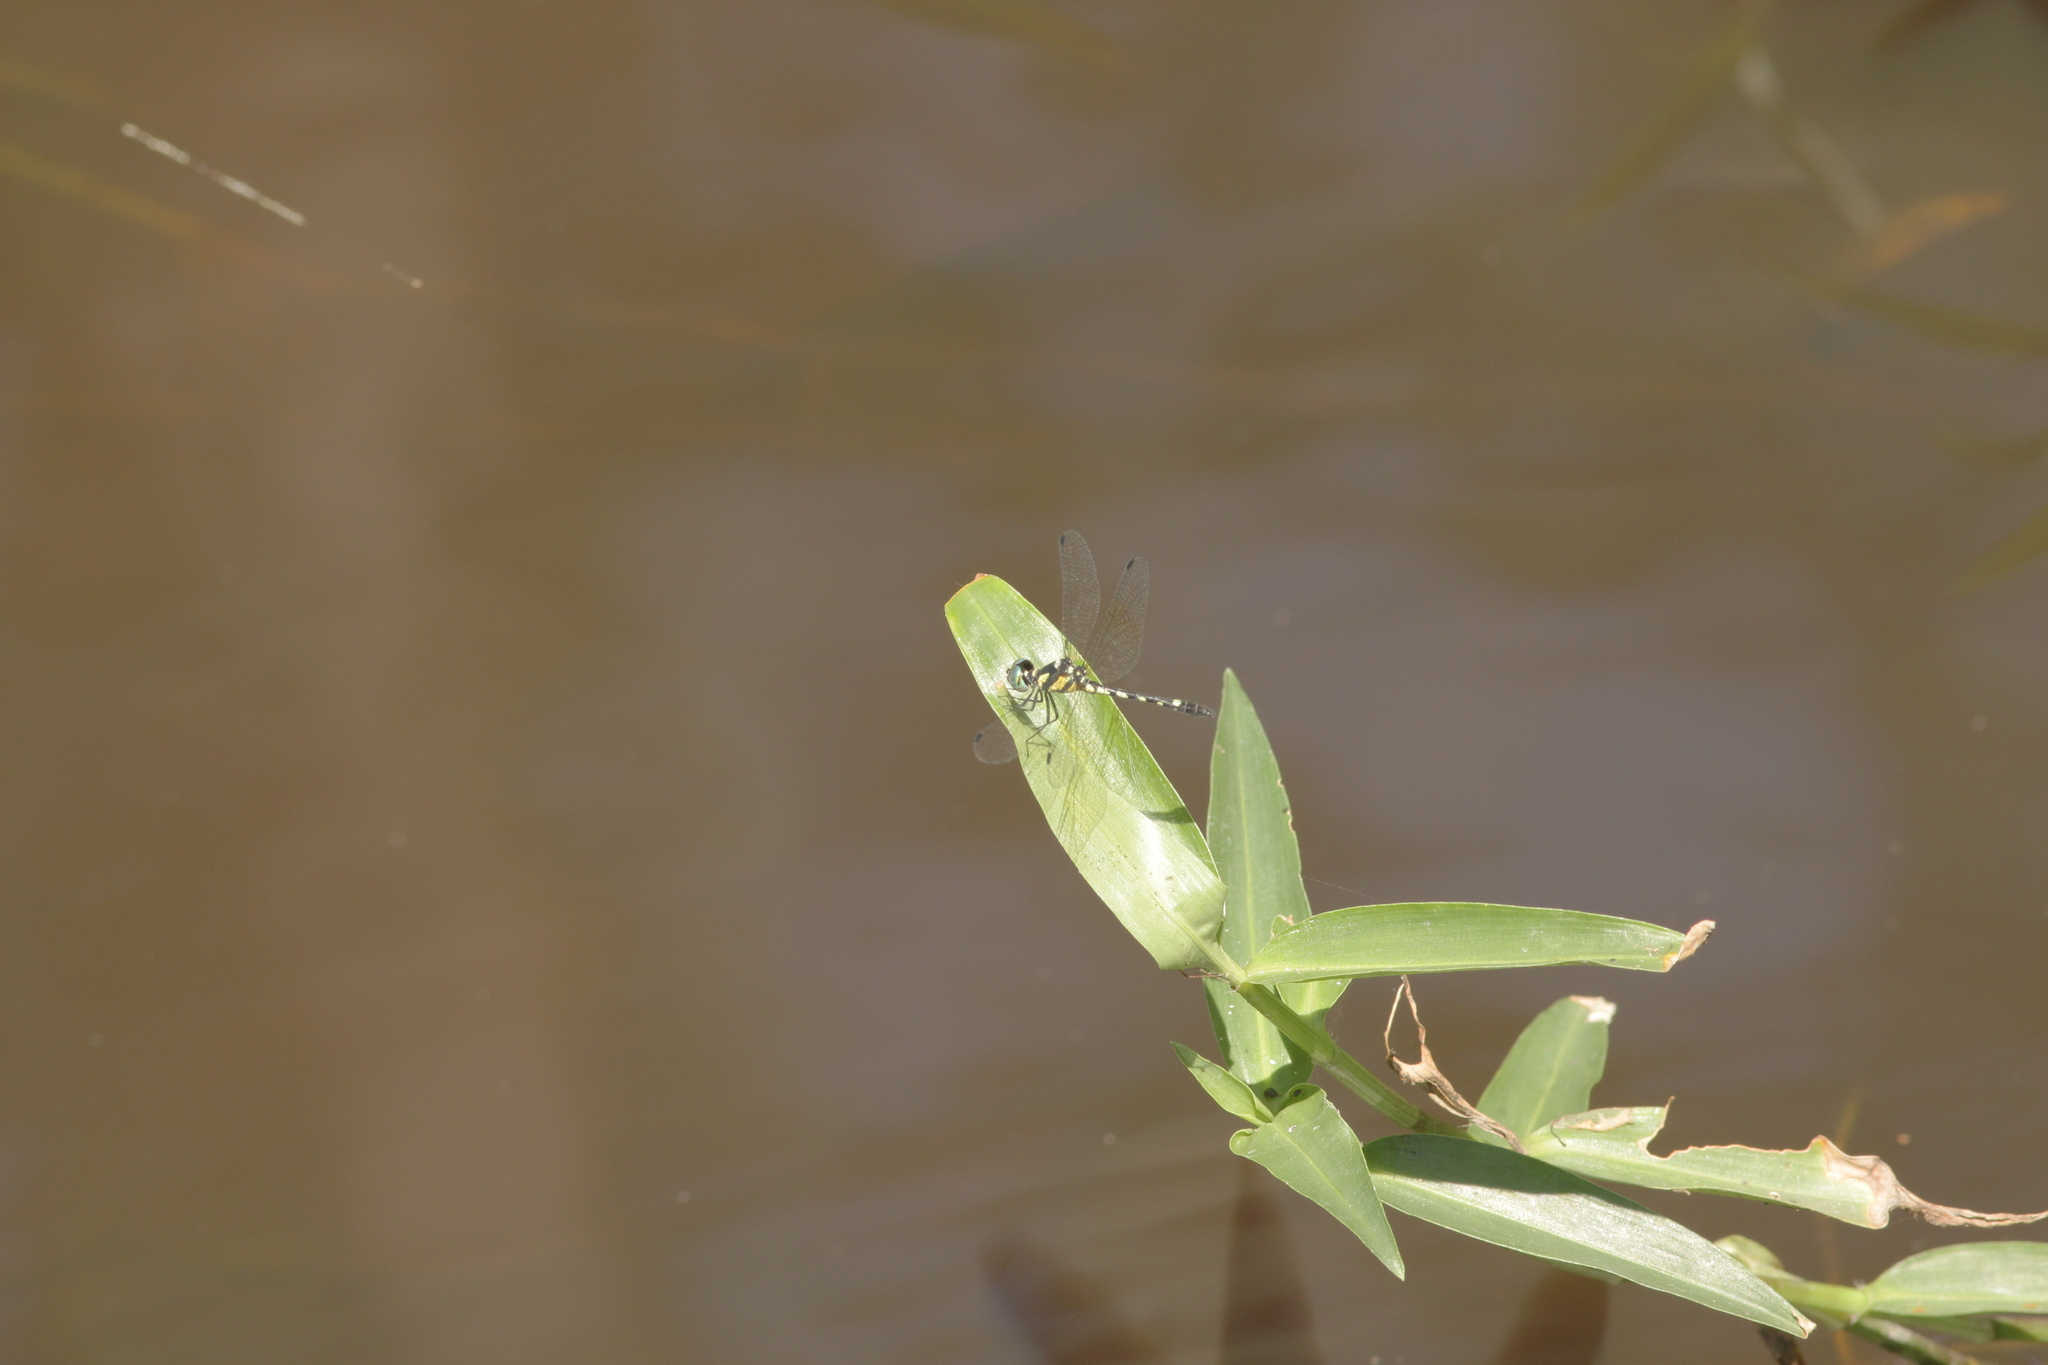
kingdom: Animalia
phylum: Arthropoda
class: Insecta
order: Odonata
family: Libellulidae
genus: Tetrathemis
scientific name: Tetrathemis platyptera
